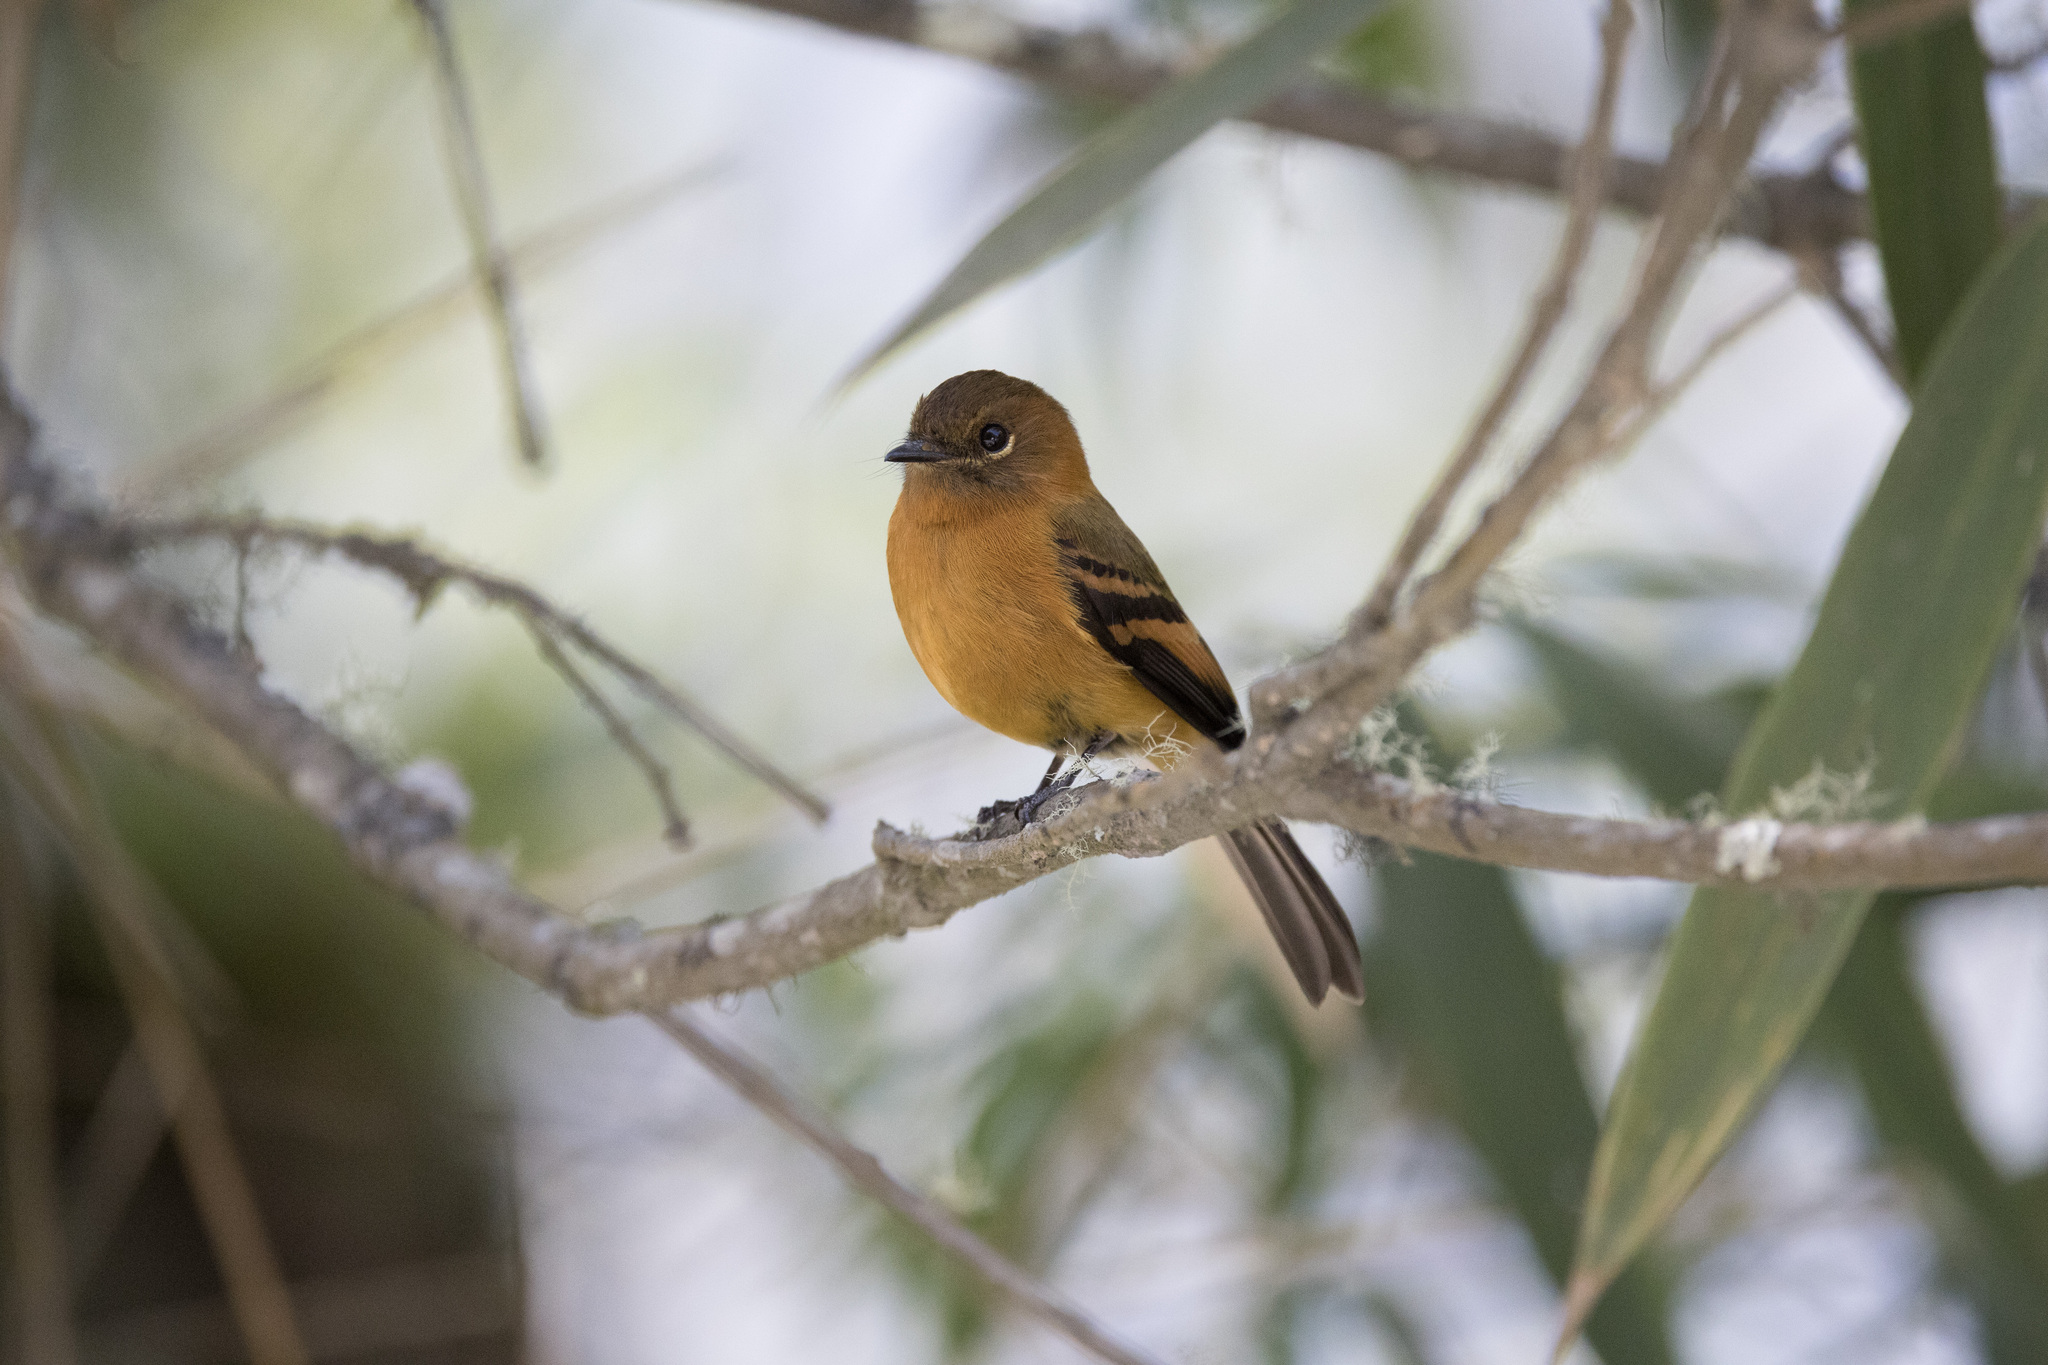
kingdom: Animalia
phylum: Chordata
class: Aves
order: Passeriformes
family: Tyrannidae
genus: Pyrrhomyias
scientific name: Pyrrhomyias cinnamomeus
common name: Cinnamon flycatcher
